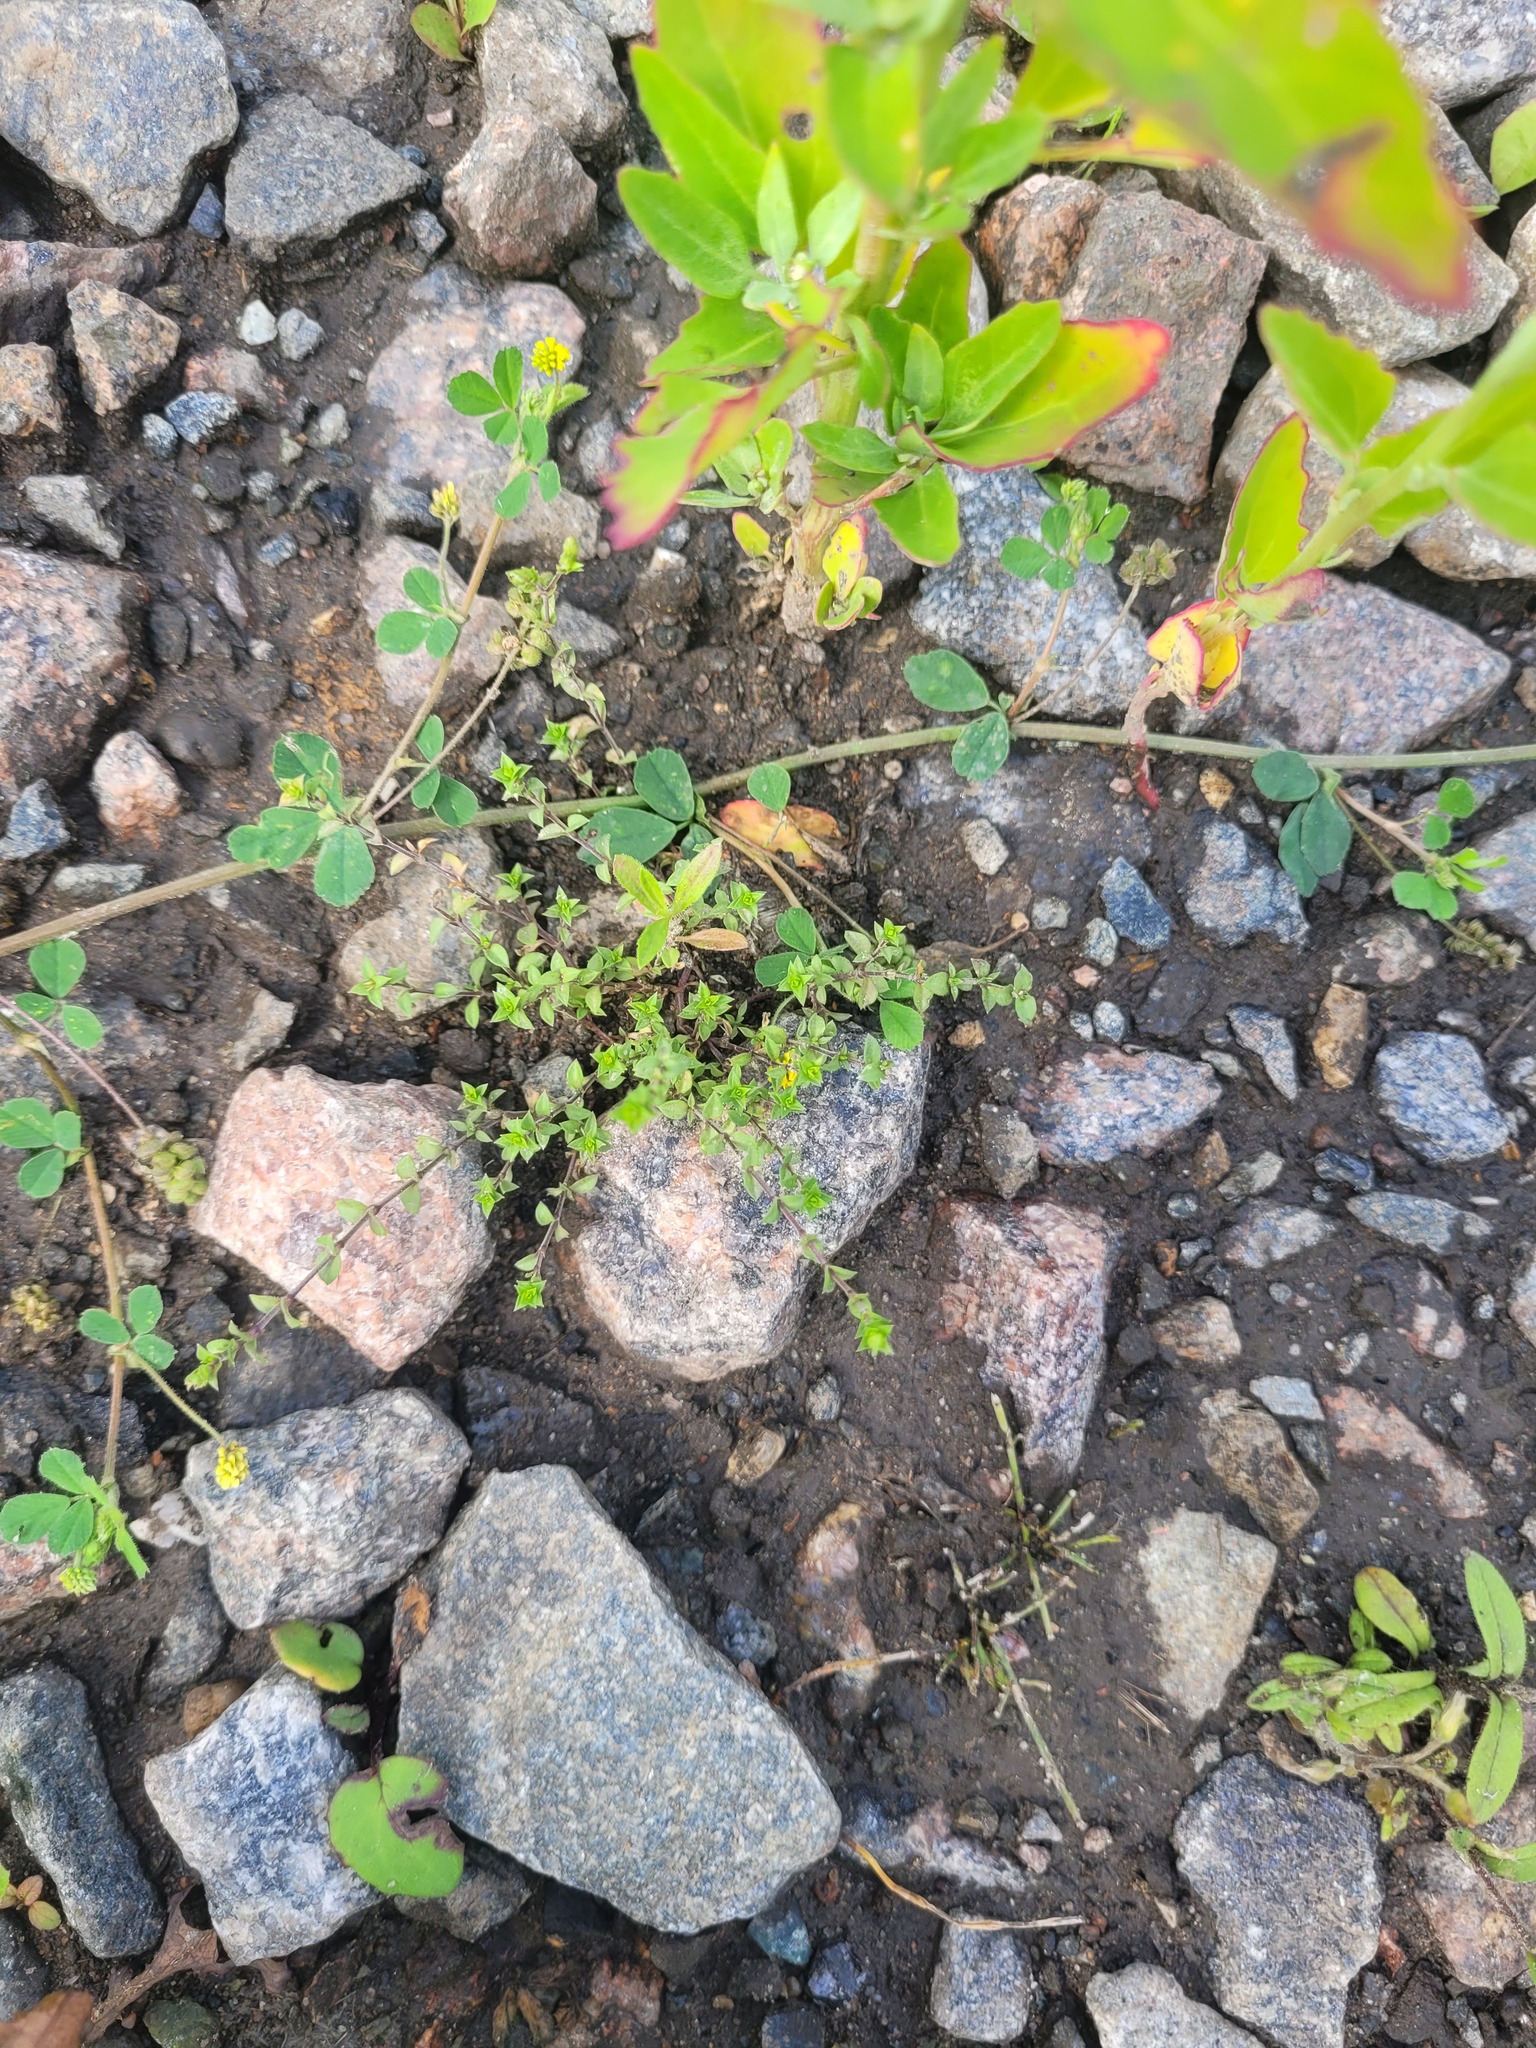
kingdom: Plantae
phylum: Tracheophyta
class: Magnoliopsida
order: Caryophyllales
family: Caryophyllaceae
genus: Arenaria
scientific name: Arenaria serpyllifolia
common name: Thyme-leaved sandwort
